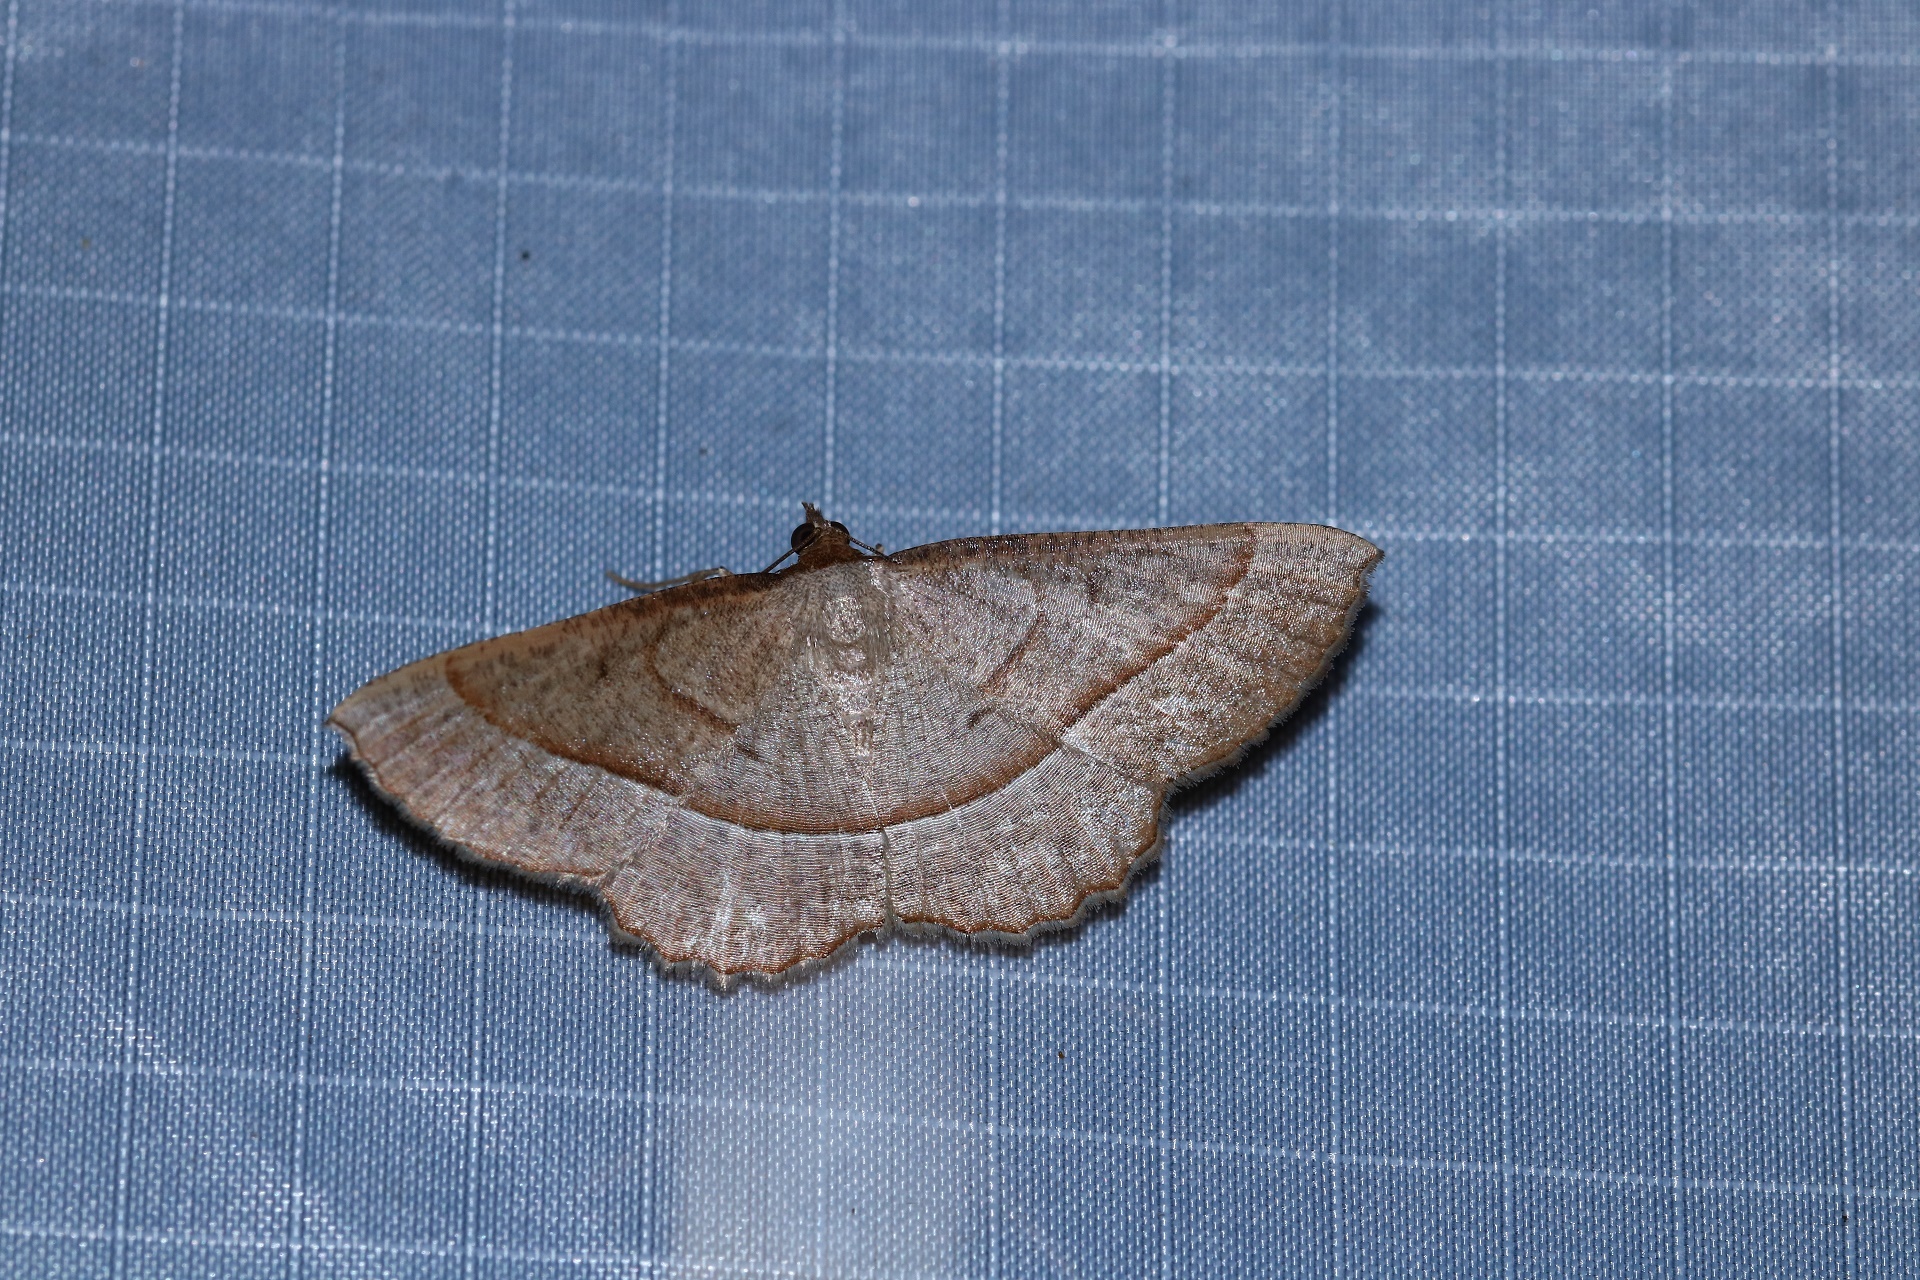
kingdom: Animalia
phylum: Arthropoda
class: Insecta
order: Lepidoptera
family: Geometridae
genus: Nadagara
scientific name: Nadagara juventinaria
